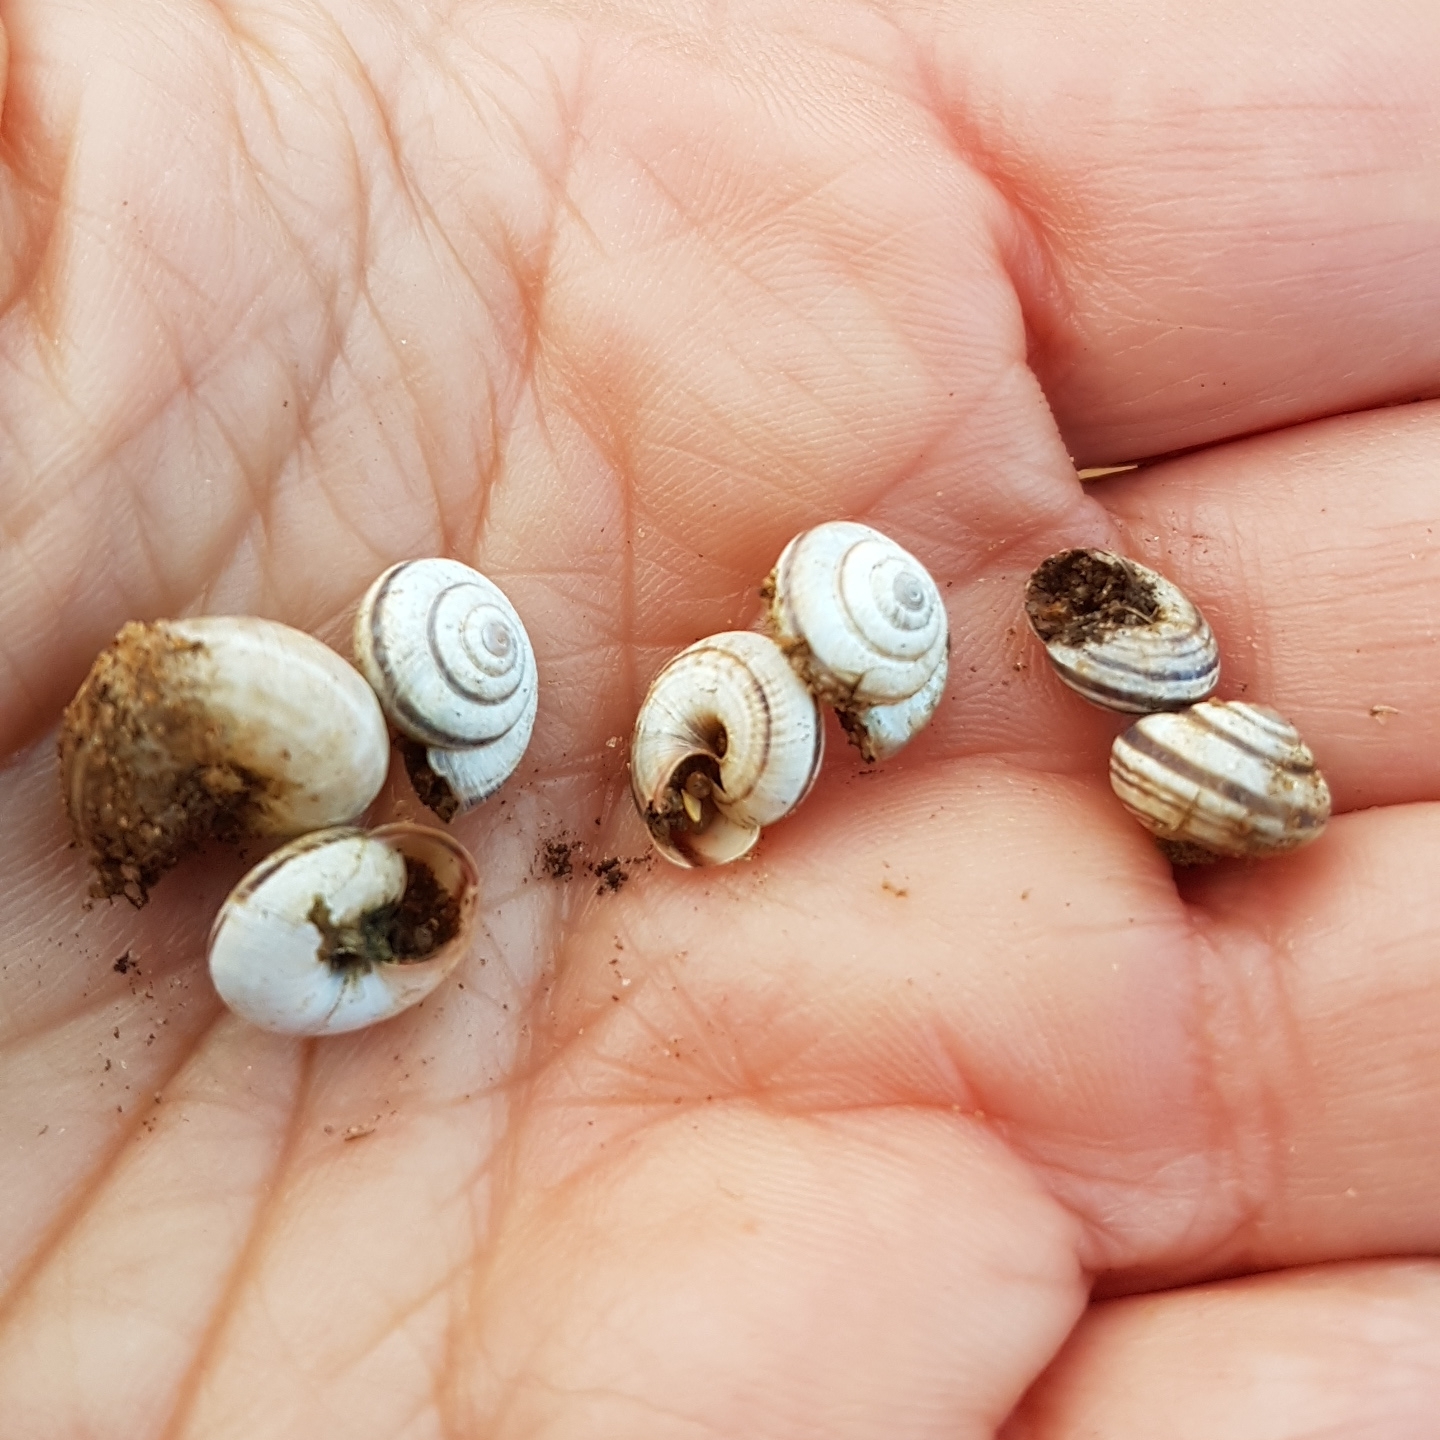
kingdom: Animalia
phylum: Mollusca
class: Gastropoda
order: Stylommatophora
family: Geomitridae
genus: Cernuella
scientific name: Cernuella virgata
